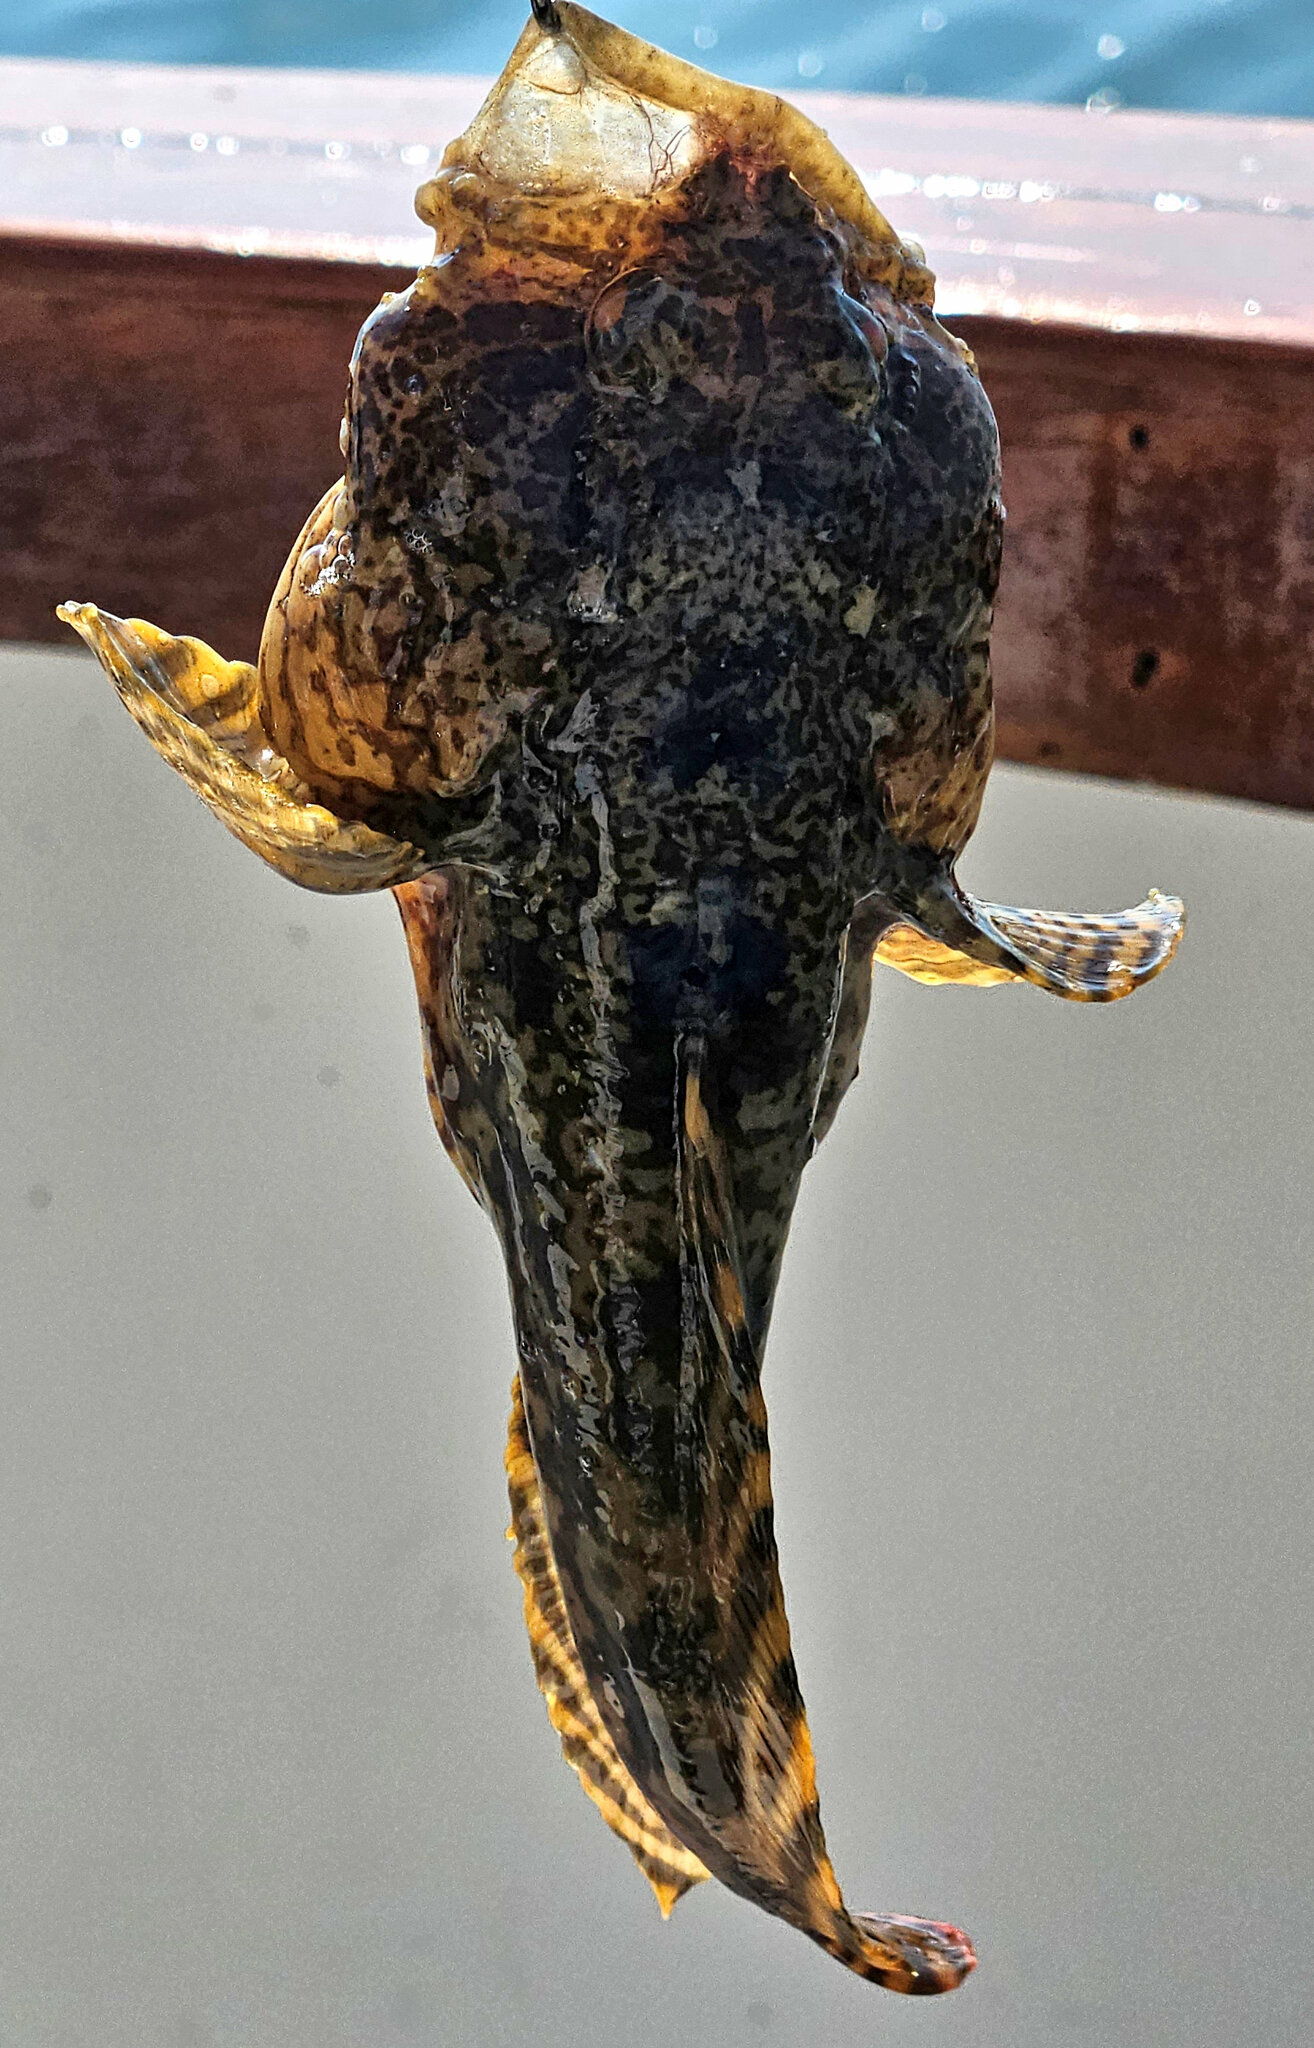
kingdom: Animalia
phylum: Chordata
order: Batrachoidiformes
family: Batrachoididae
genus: Opsanus
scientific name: Opsanus tau
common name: Oyster toadfish
